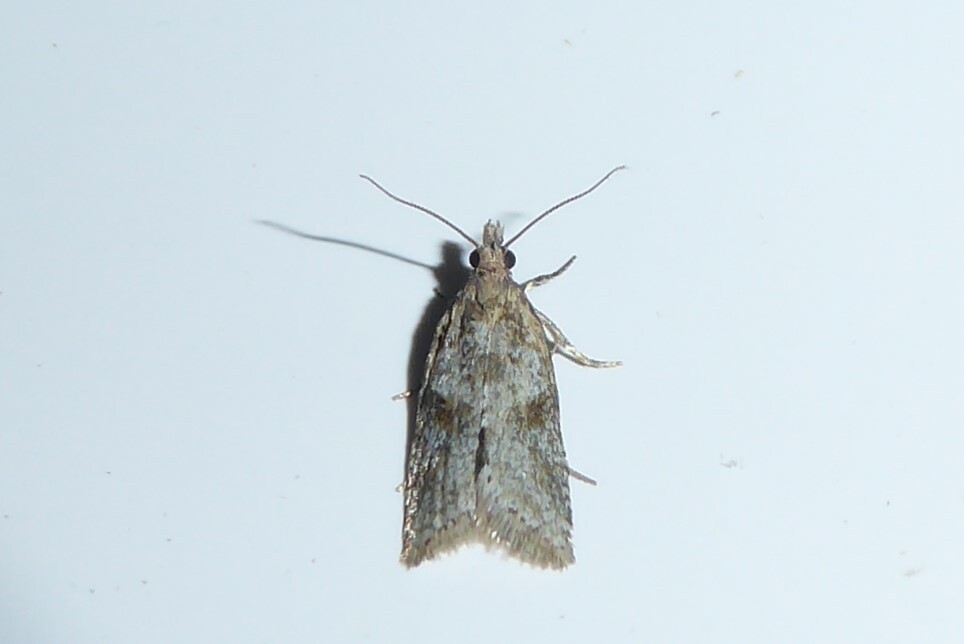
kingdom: Animalia
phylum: Arthropoda
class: Insecta
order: Lepidoptera
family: Tortricidae
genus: Capua
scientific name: Capua semiferana
